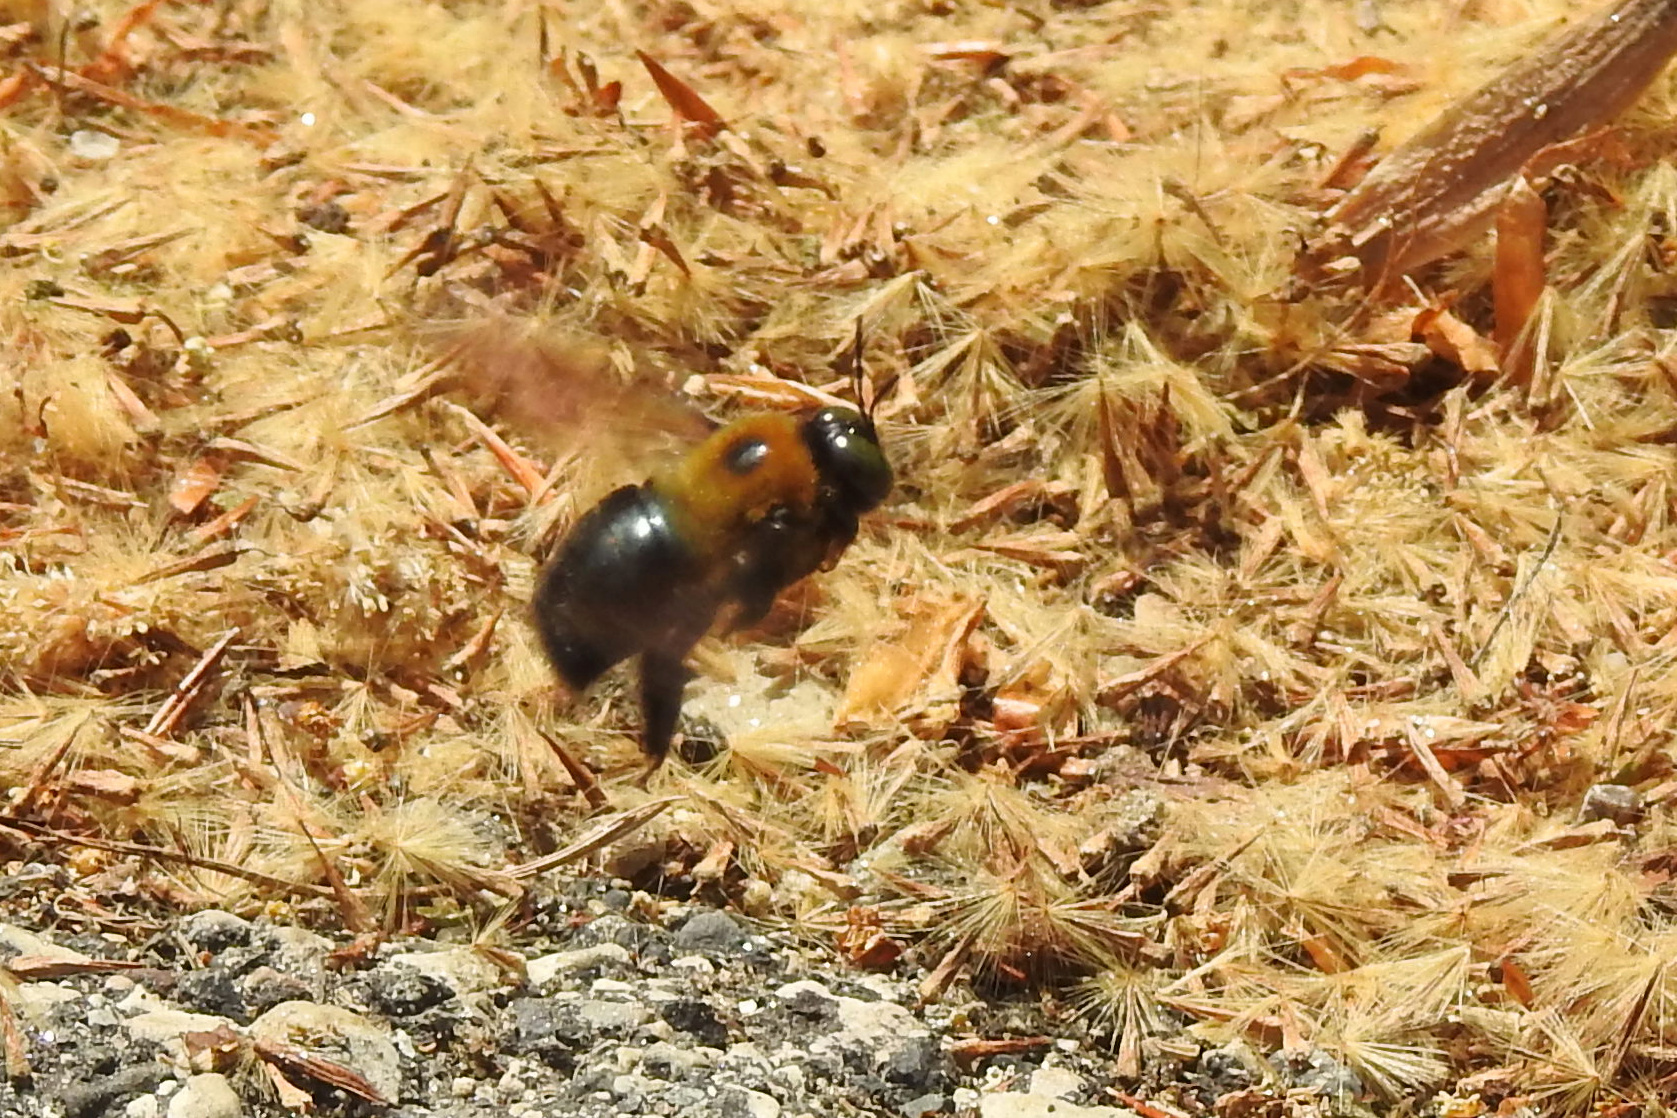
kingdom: Animalia
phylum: Arthropoda
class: Insecta
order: Hymenoptera
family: Apidae
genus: Xylocopa
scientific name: Xylocopa virginica
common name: Carpenter bee
